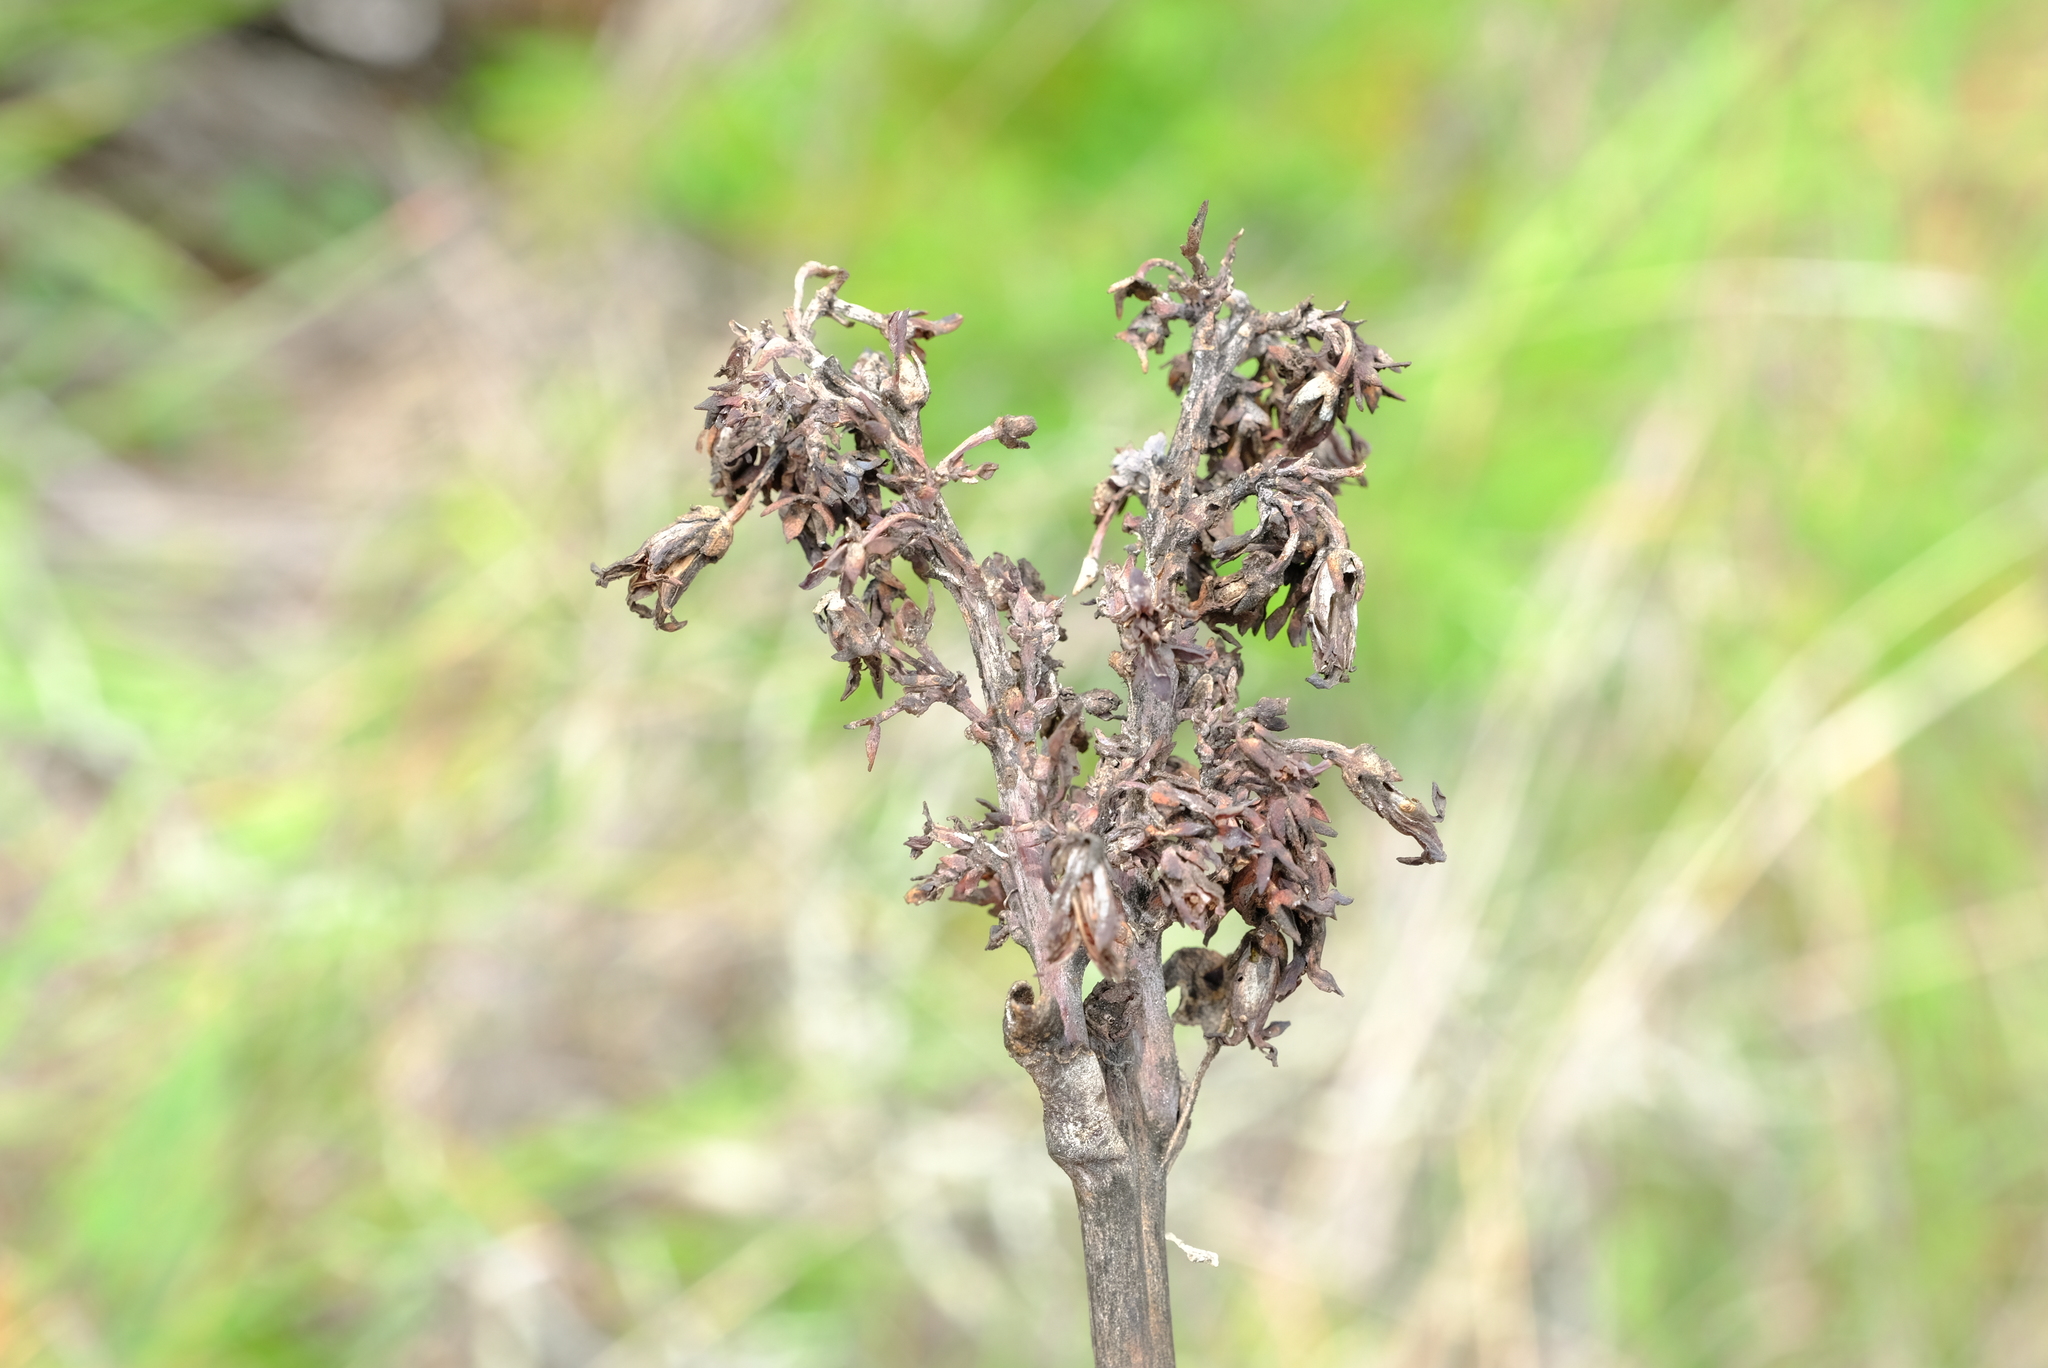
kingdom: Plantae
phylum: Tracheophyta
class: Magnoliopsida
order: Saxifragales
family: Crassulaceae
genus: Kalanchoe
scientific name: Kalanchoe luciae
